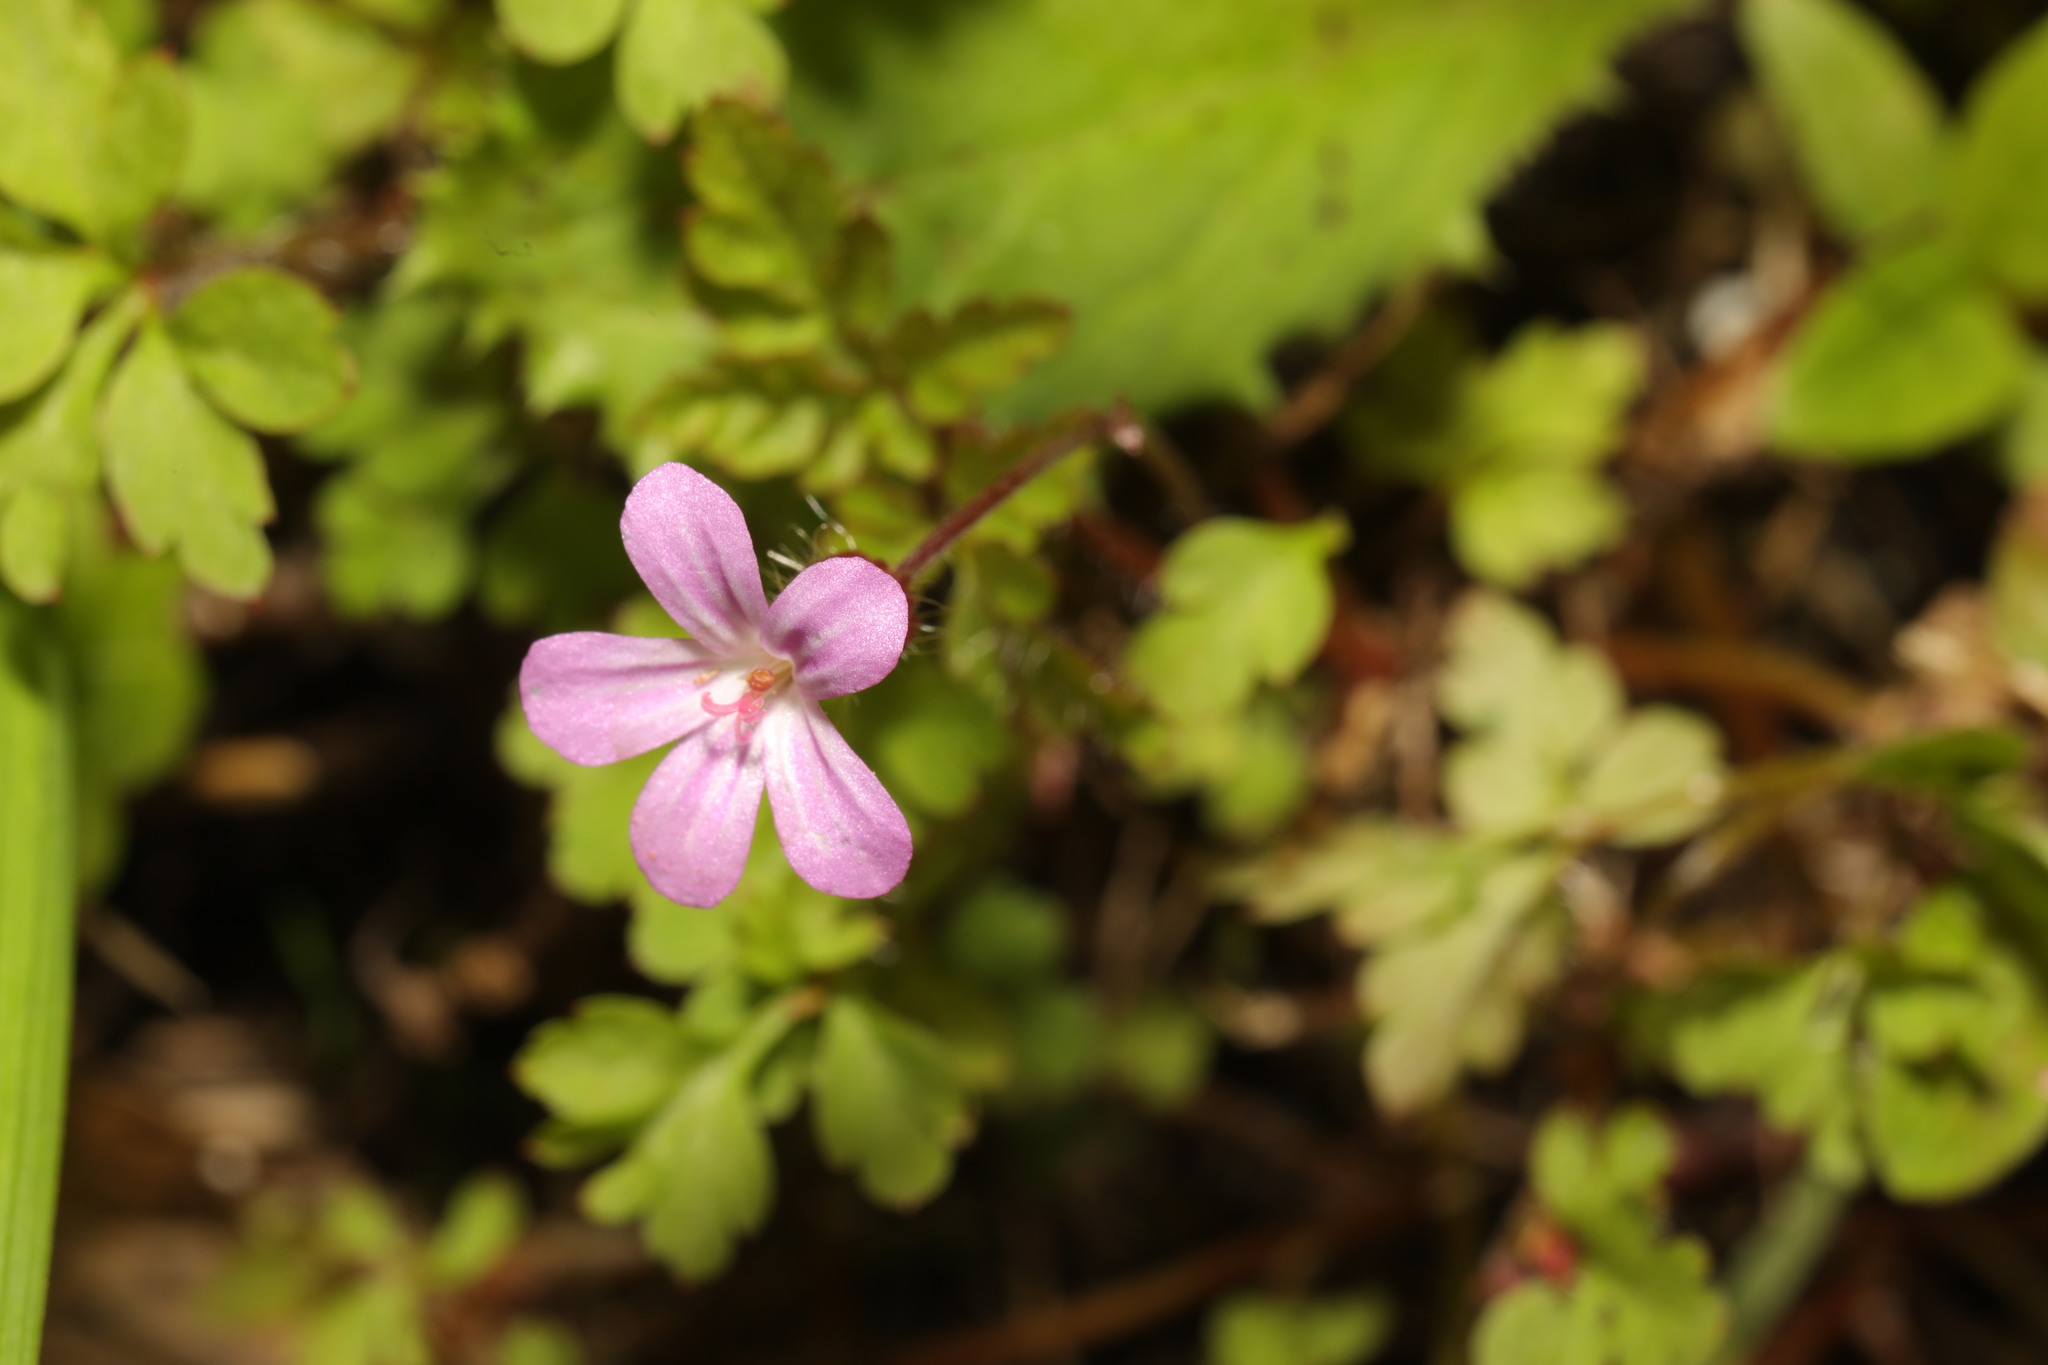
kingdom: Plantae
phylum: Tracheophyta
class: Magnoliopsida
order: Geraniales
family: Geraniaceae
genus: Geranium
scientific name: Geranium robertianum
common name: Herb-robert
